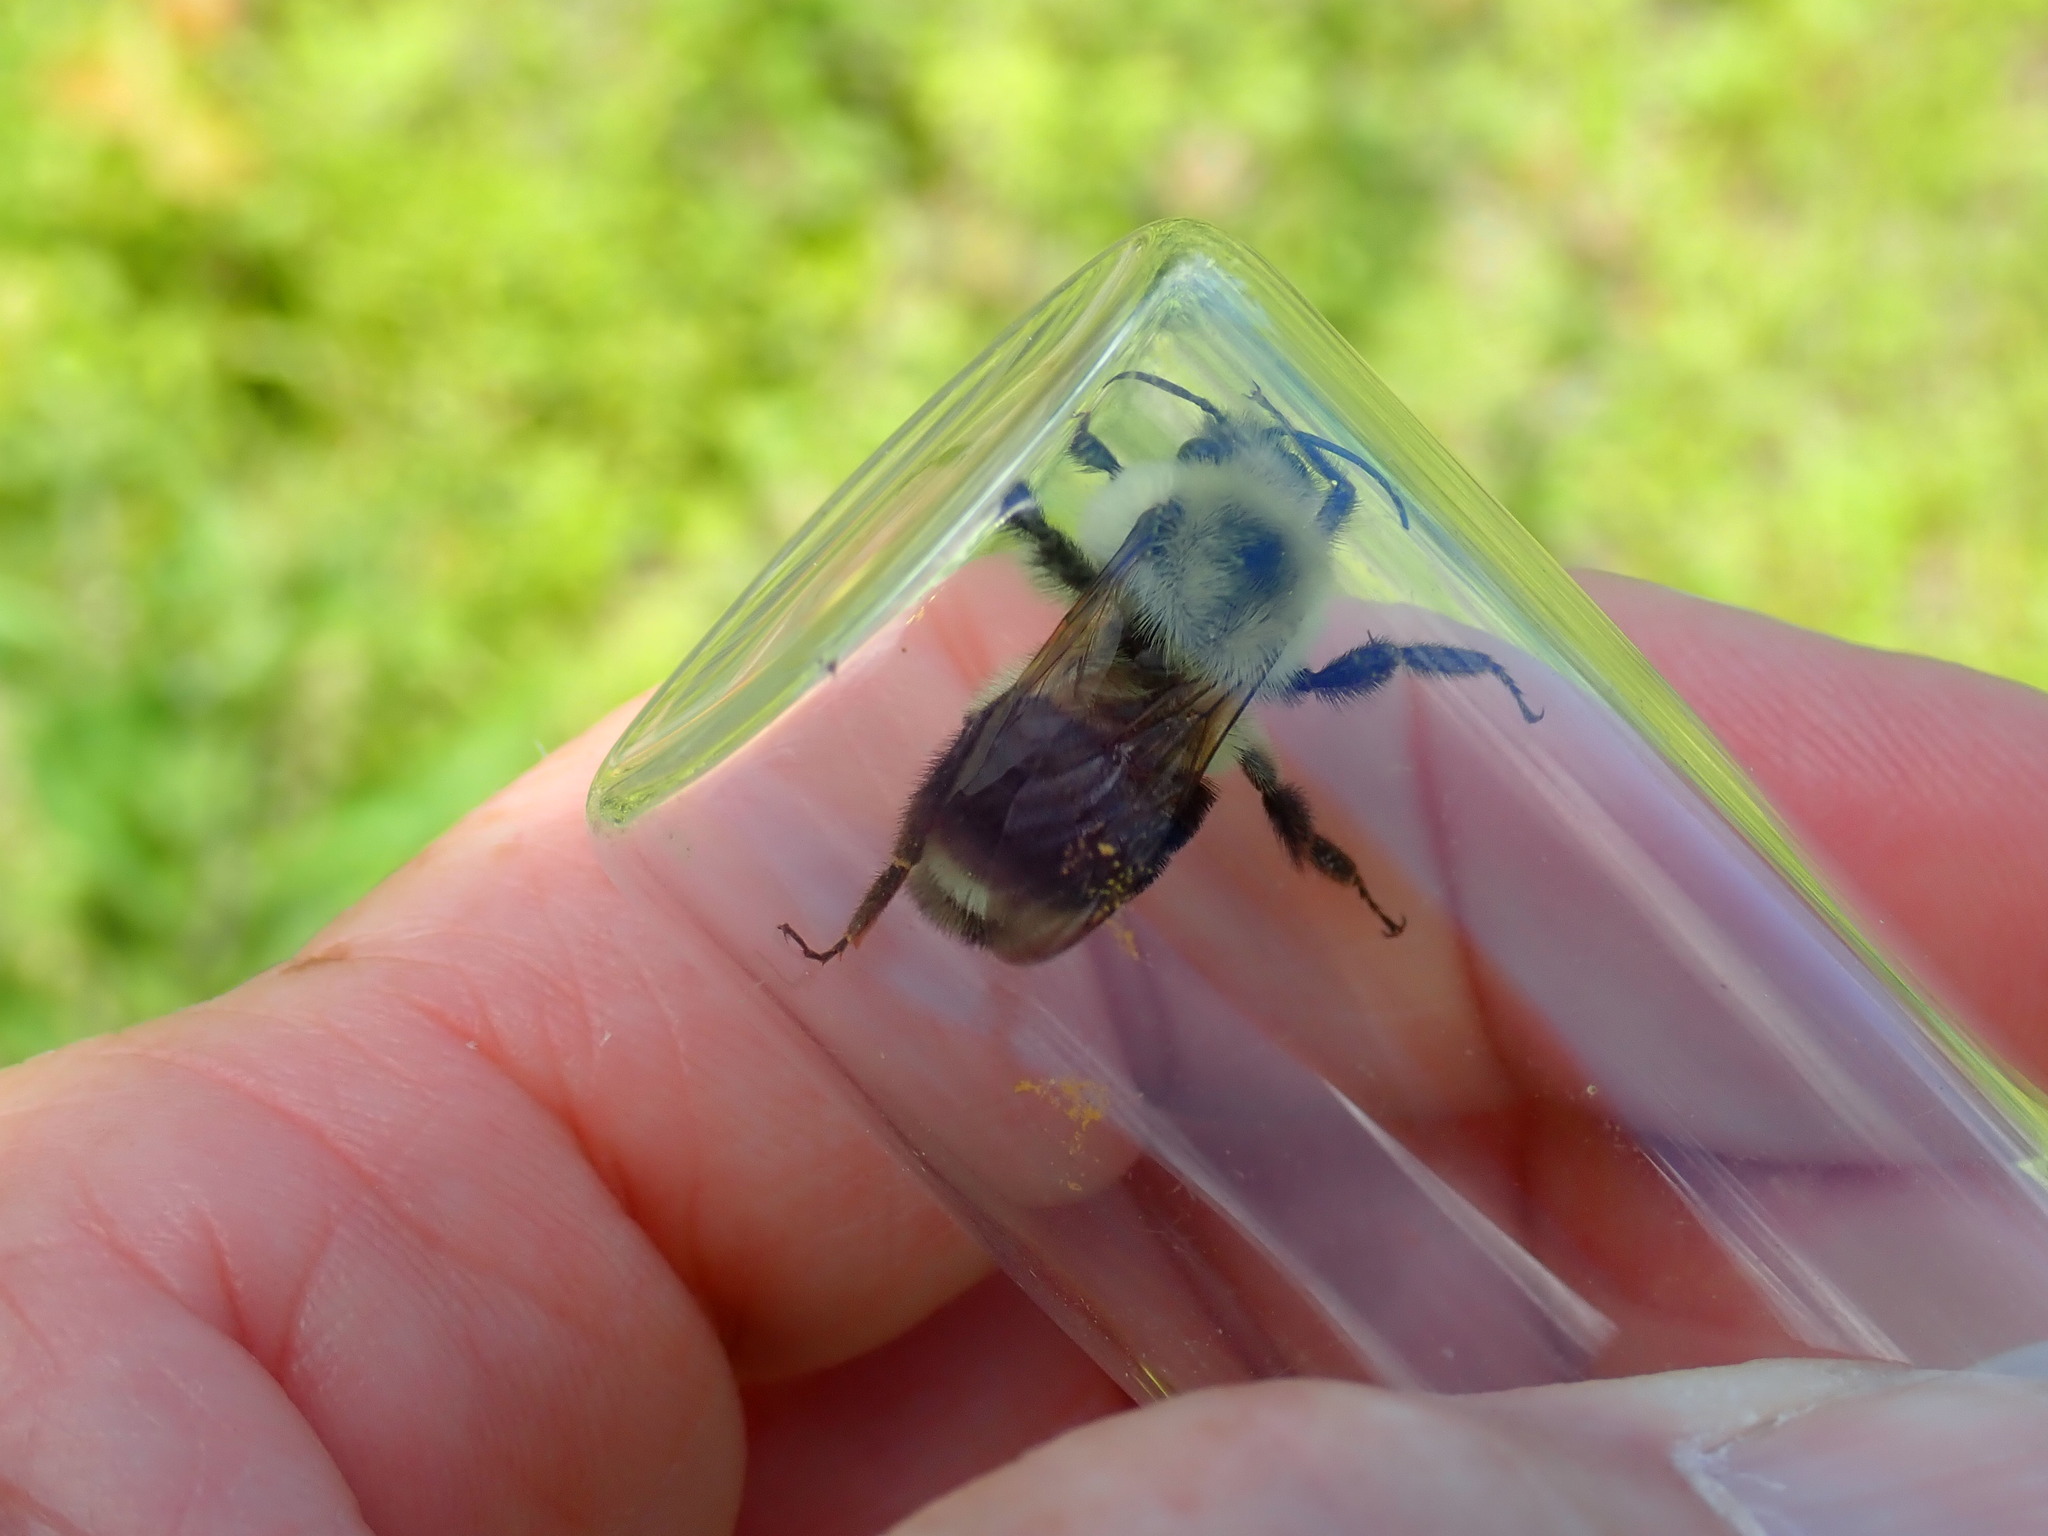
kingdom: Animalia
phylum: Arthropoda
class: Insecta
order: Hymenoptera
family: Apidae
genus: Bombus
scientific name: Bombus bimaculatus
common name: Two-spotted bumble bee
